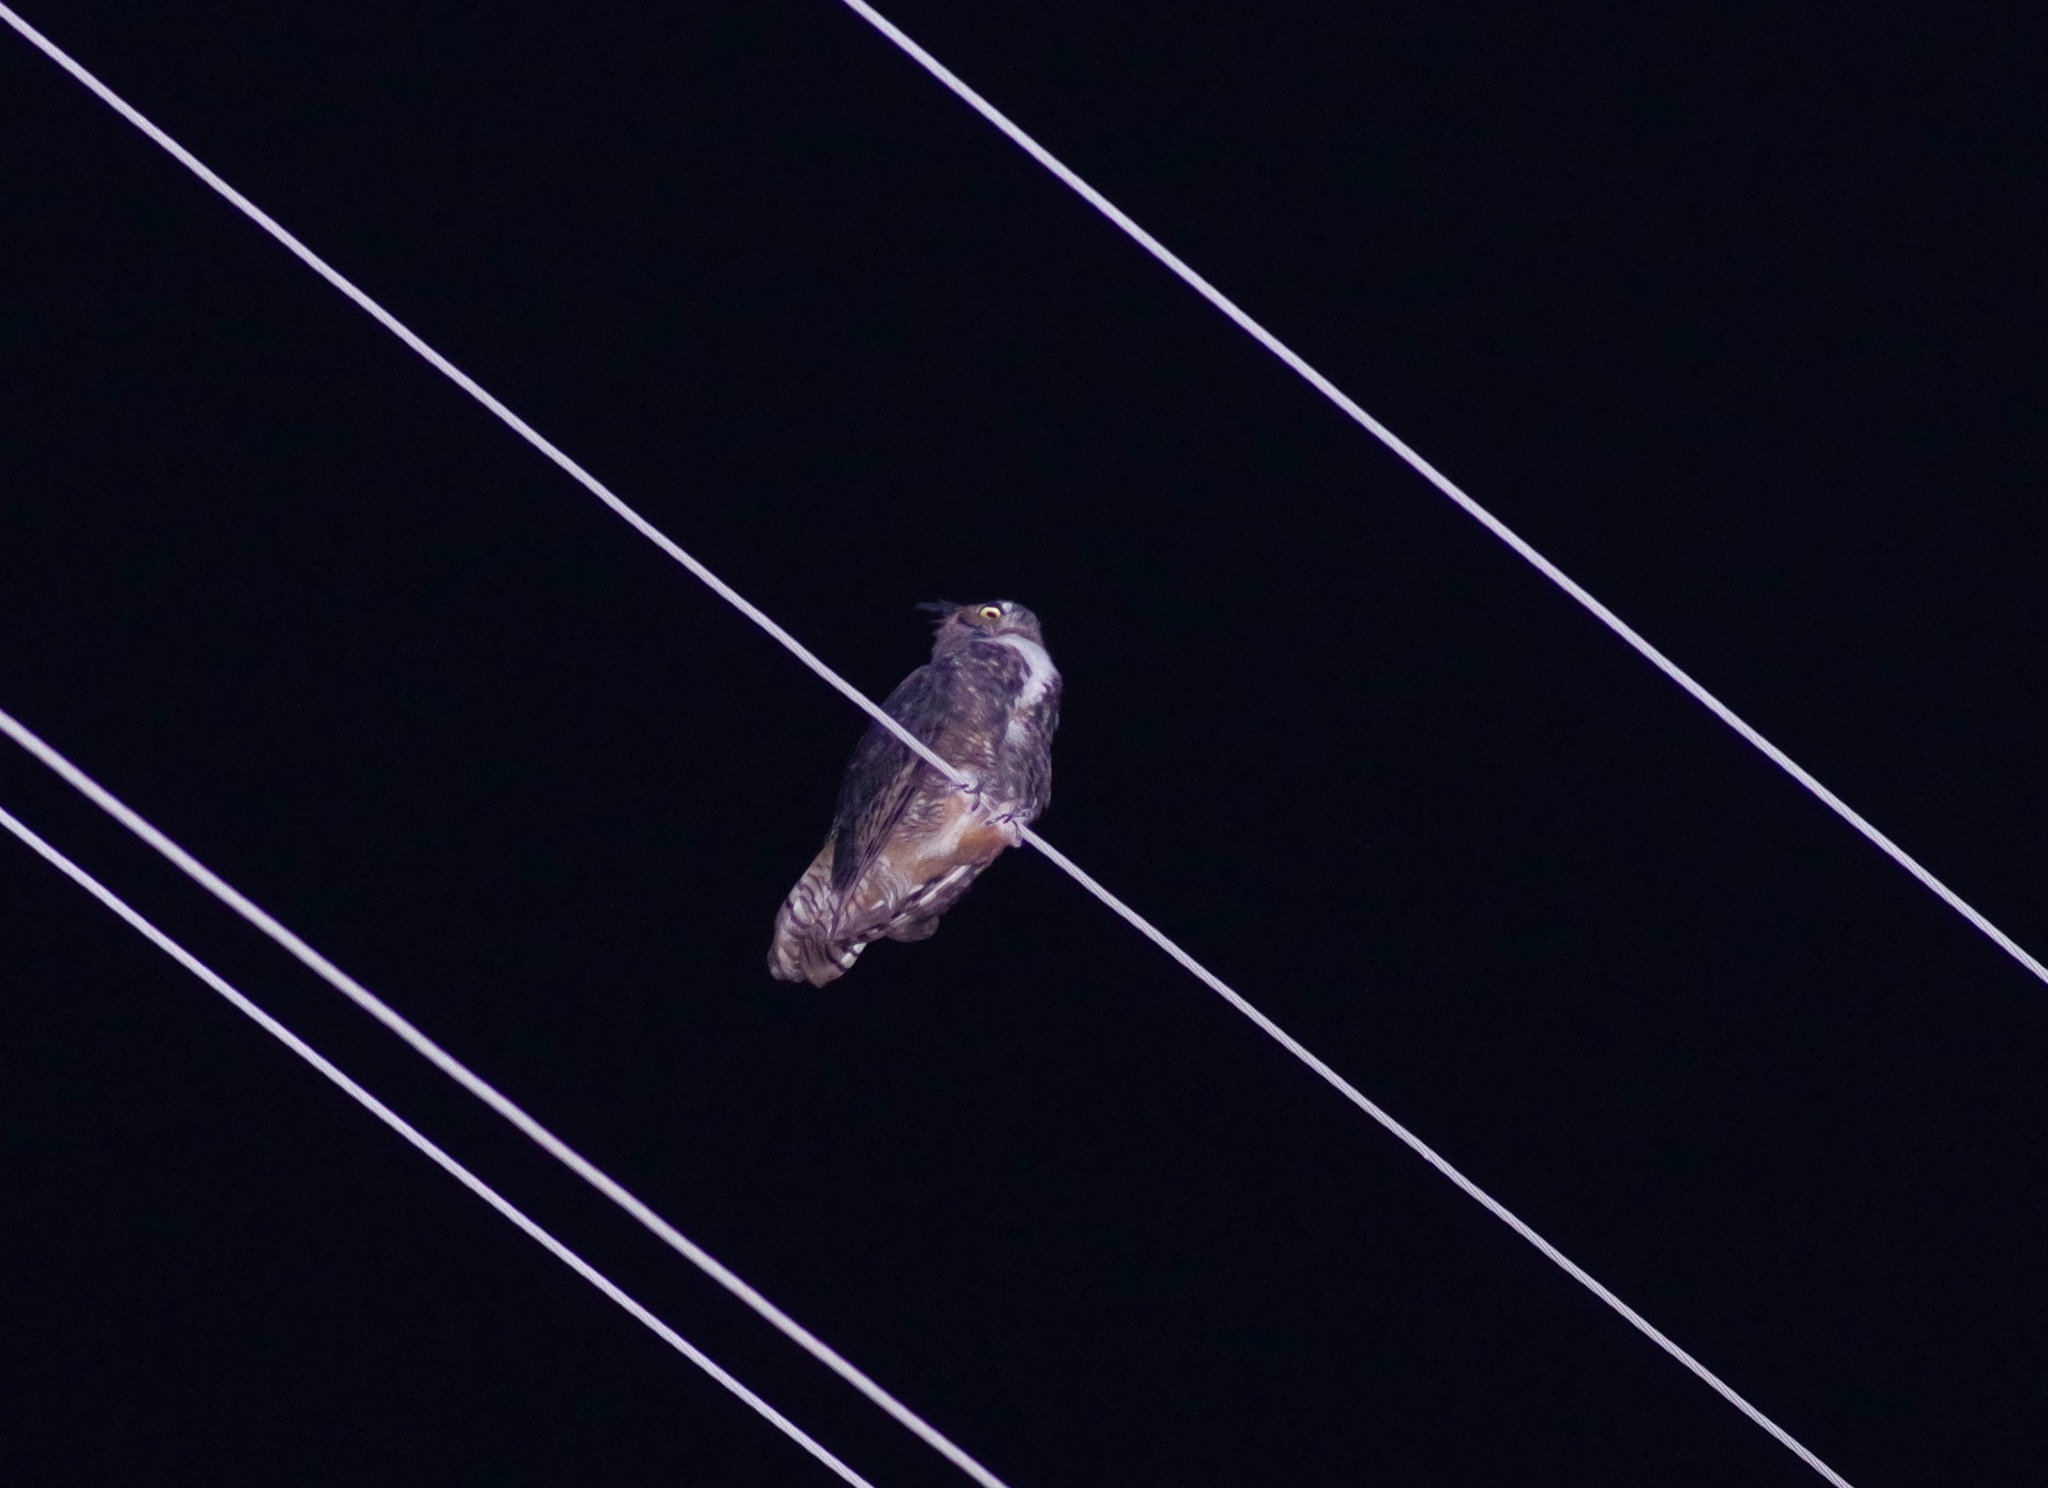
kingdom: Animalia
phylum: Chordata
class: Aves
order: Strigiformes
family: Strigidae
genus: Bubo
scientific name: Bubo virginianus
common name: Great horned owl
